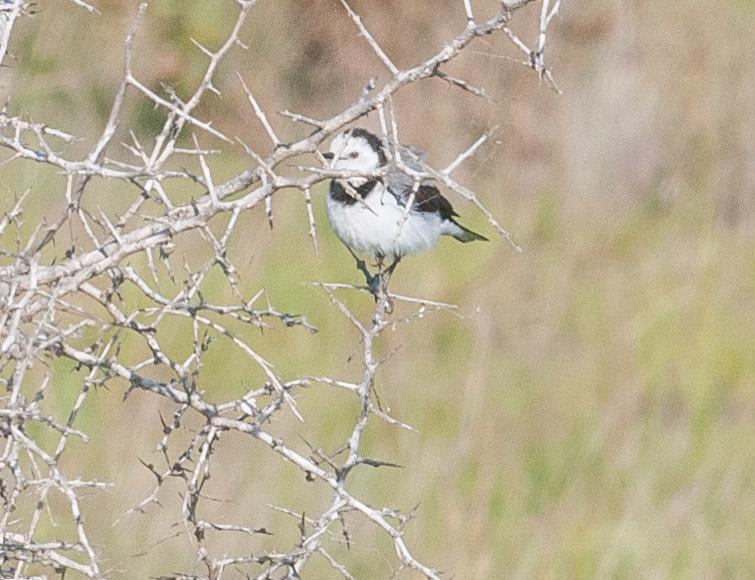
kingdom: Animalia
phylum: Chordata
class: Aves
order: Passeriformes
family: Meliphagidae
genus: Epthianura
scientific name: Epthianura albifrons
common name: White-fronted chat
